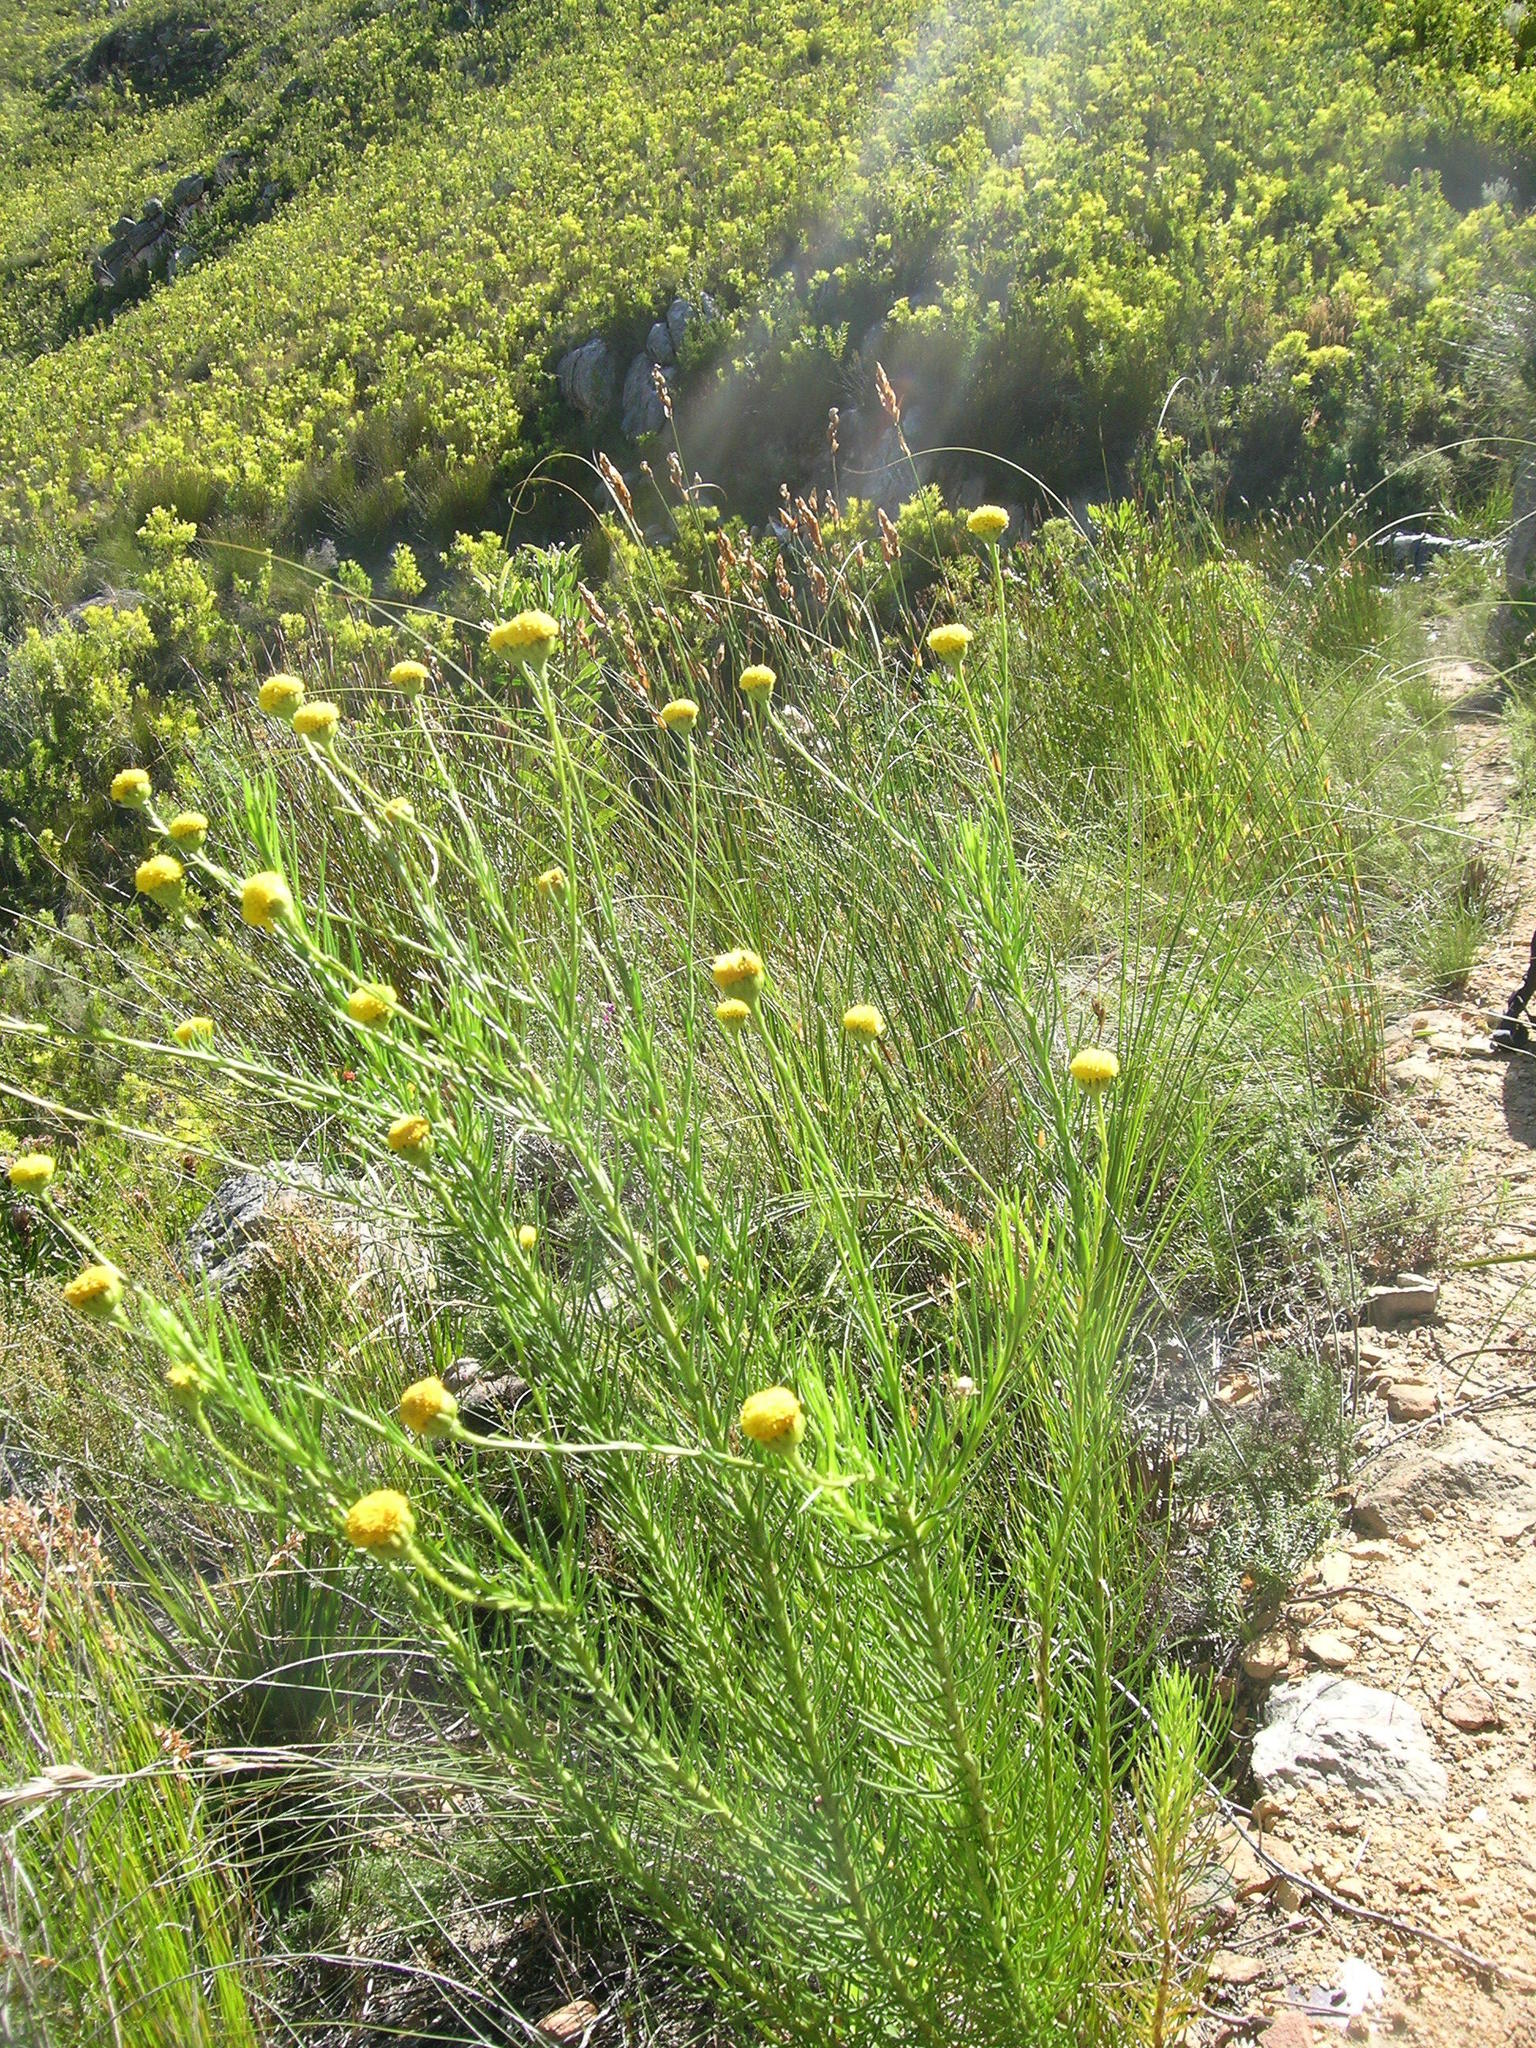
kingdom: Plantae
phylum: Tracheophyta
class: Magnoliopsida
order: Asterales
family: Asteraceae
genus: Athanasia
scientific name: Athanasia inopinata
